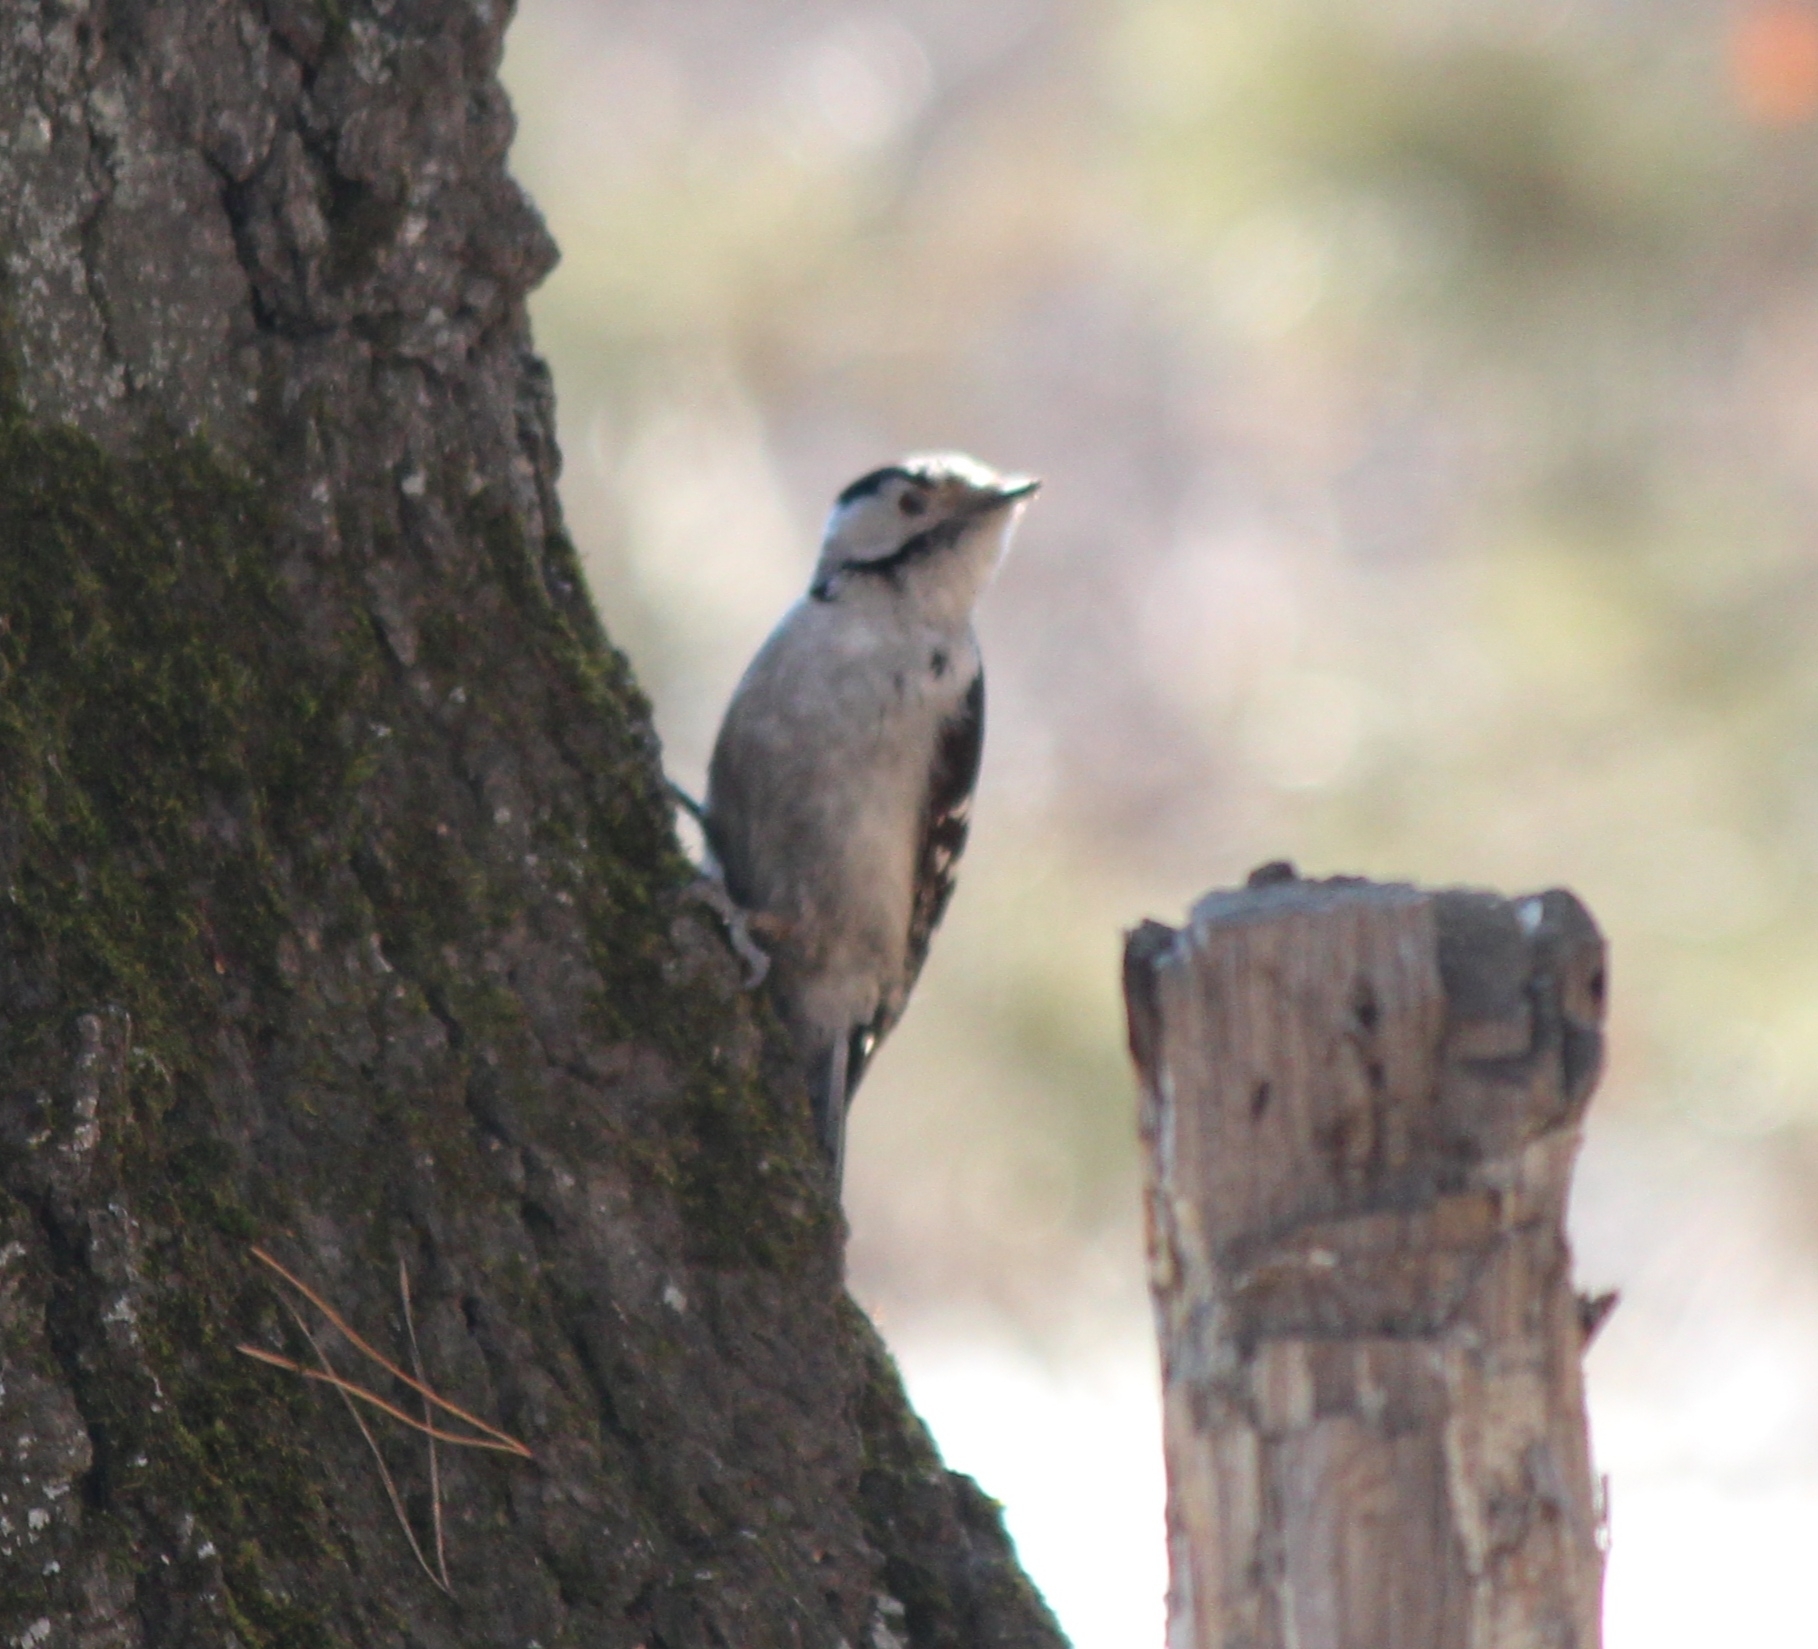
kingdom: Animalia
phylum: Chordata
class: Aves
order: Piciformes
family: Picidae
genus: Dryobates
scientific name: Dryobates minor
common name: Lesser spotted woodpecker
